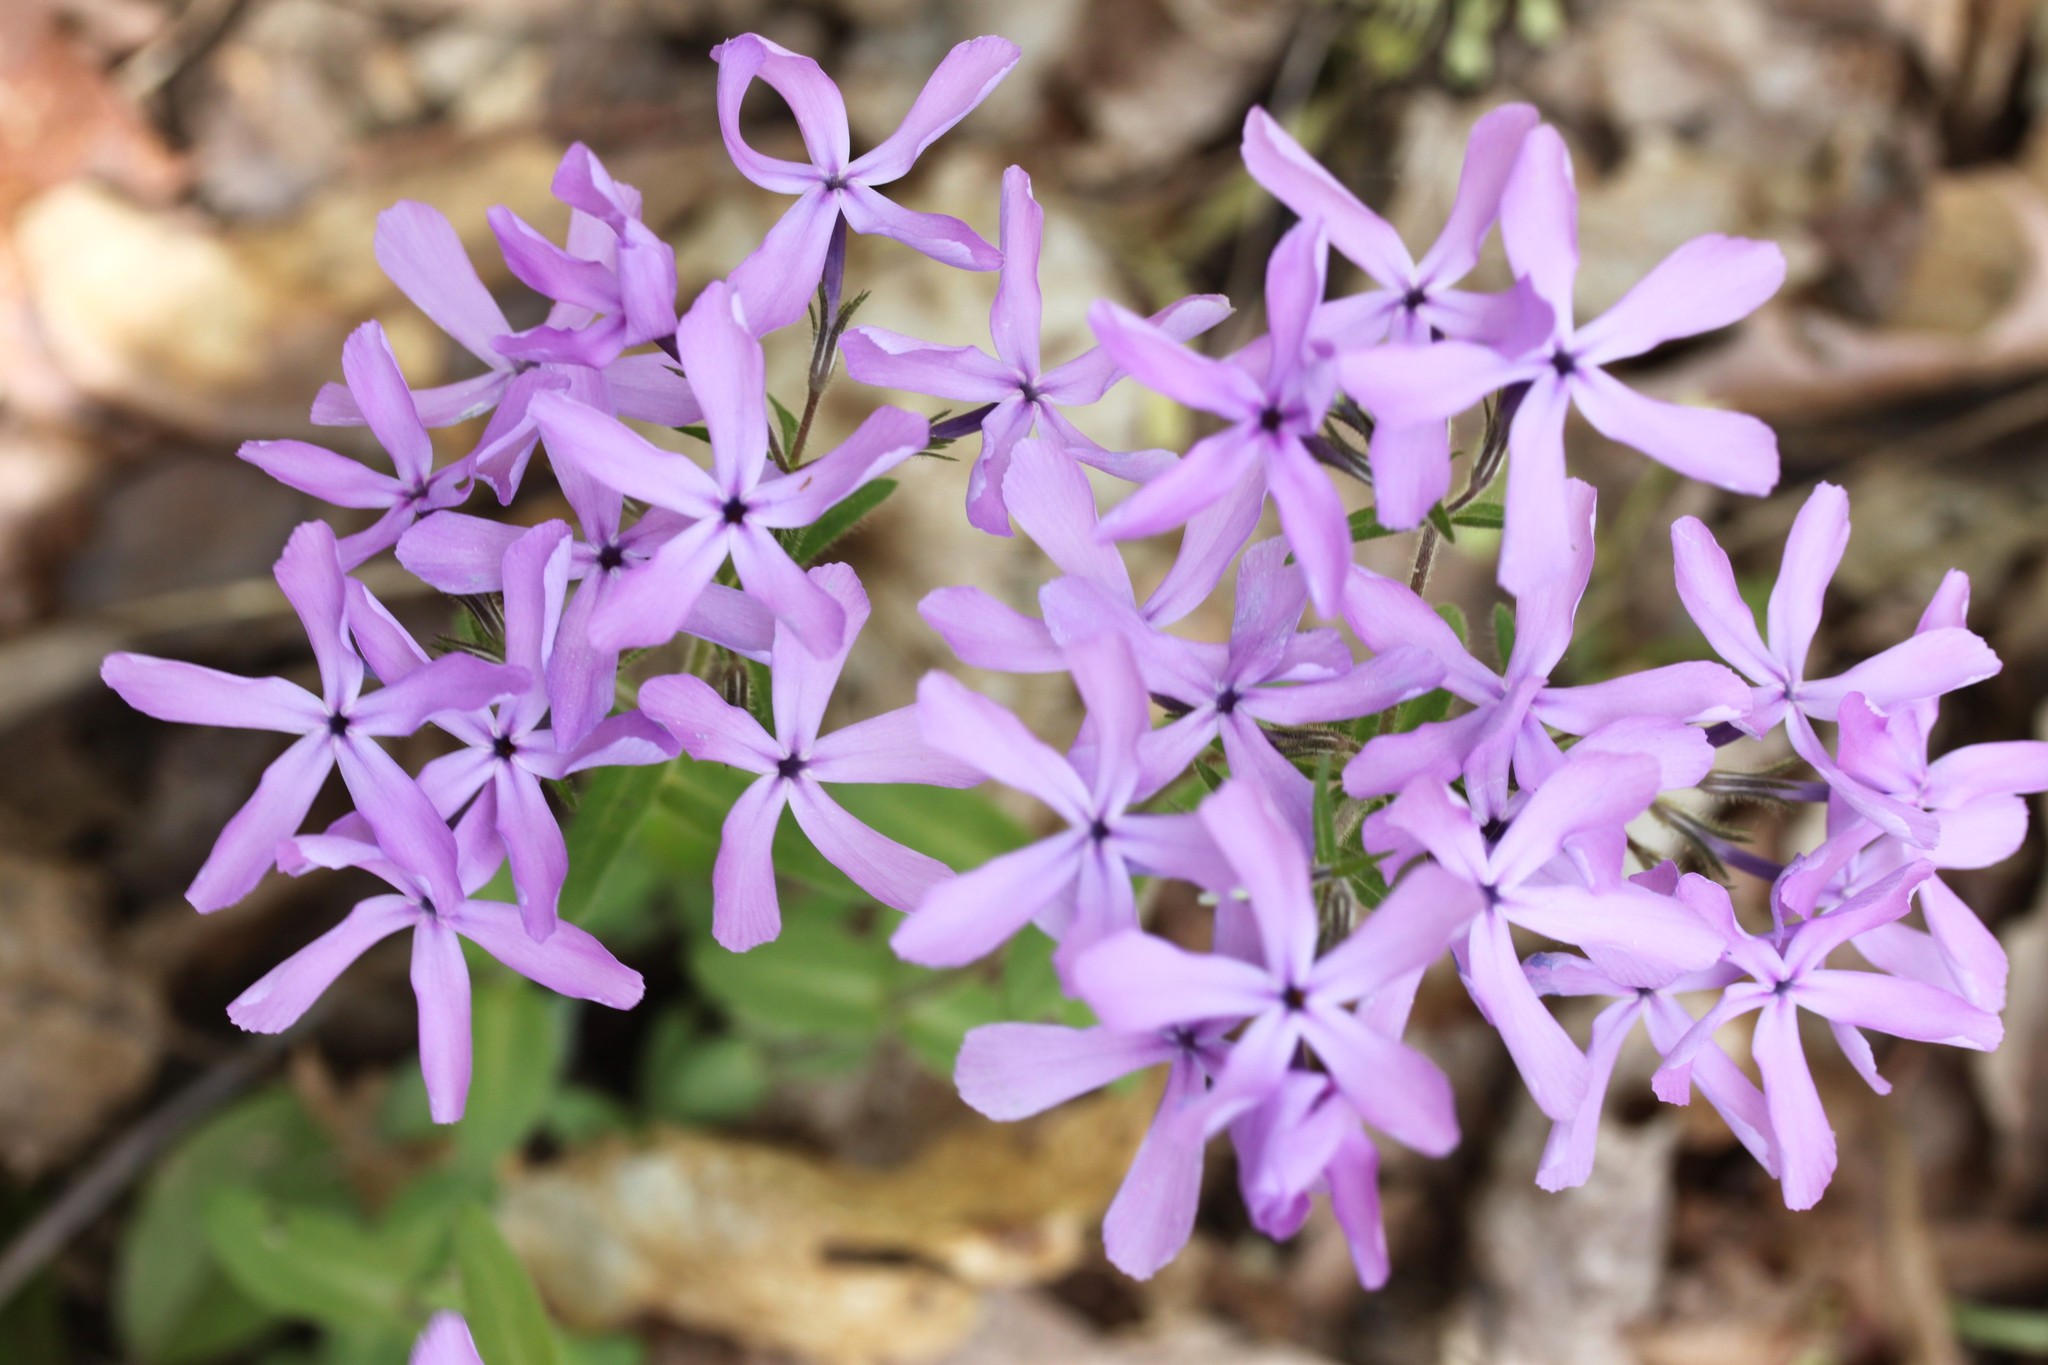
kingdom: Plantae
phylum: Tracheophyta
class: Magnoliopsida
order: Ericales
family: Polemoniaceae
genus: Phlox
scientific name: Phlox divaricata
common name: Blue phlox
